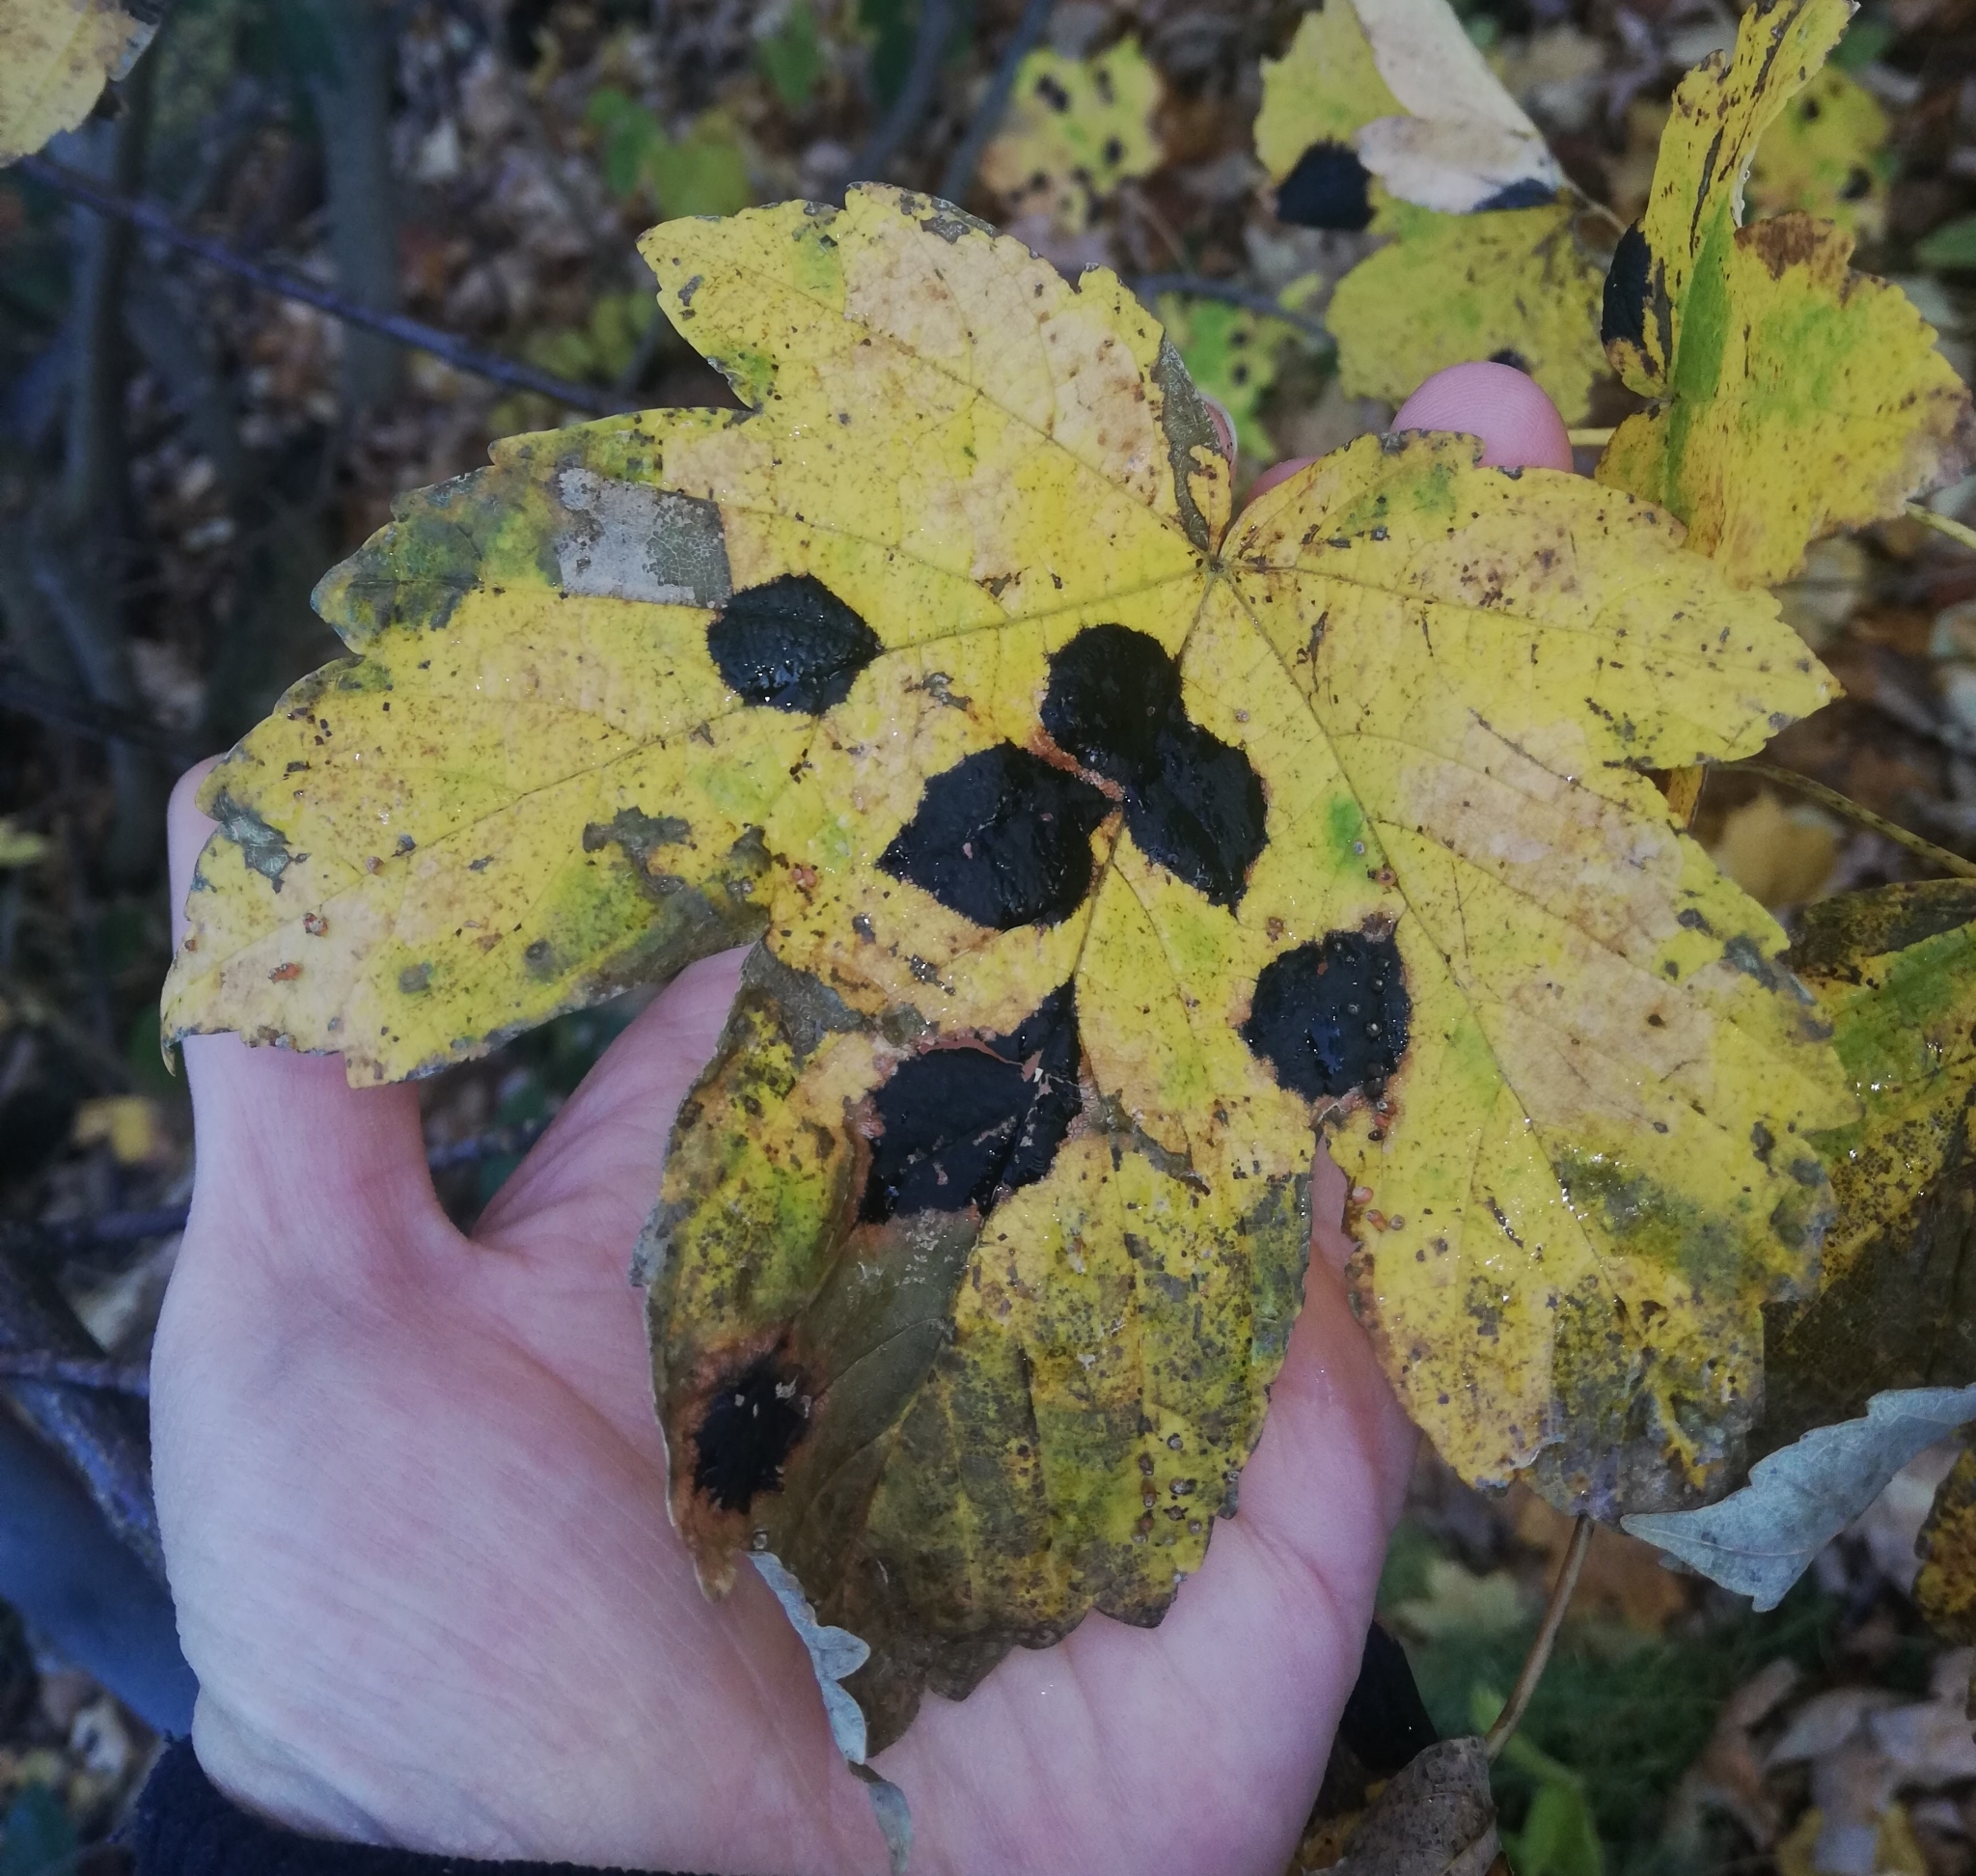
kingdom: Fungi
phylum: Ascomycota
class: Leotiomycetes
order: Rhytismatales
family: Rhytismataceae
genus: Rhytisma
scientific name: Rhytisma acerinum
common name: European tar spot
